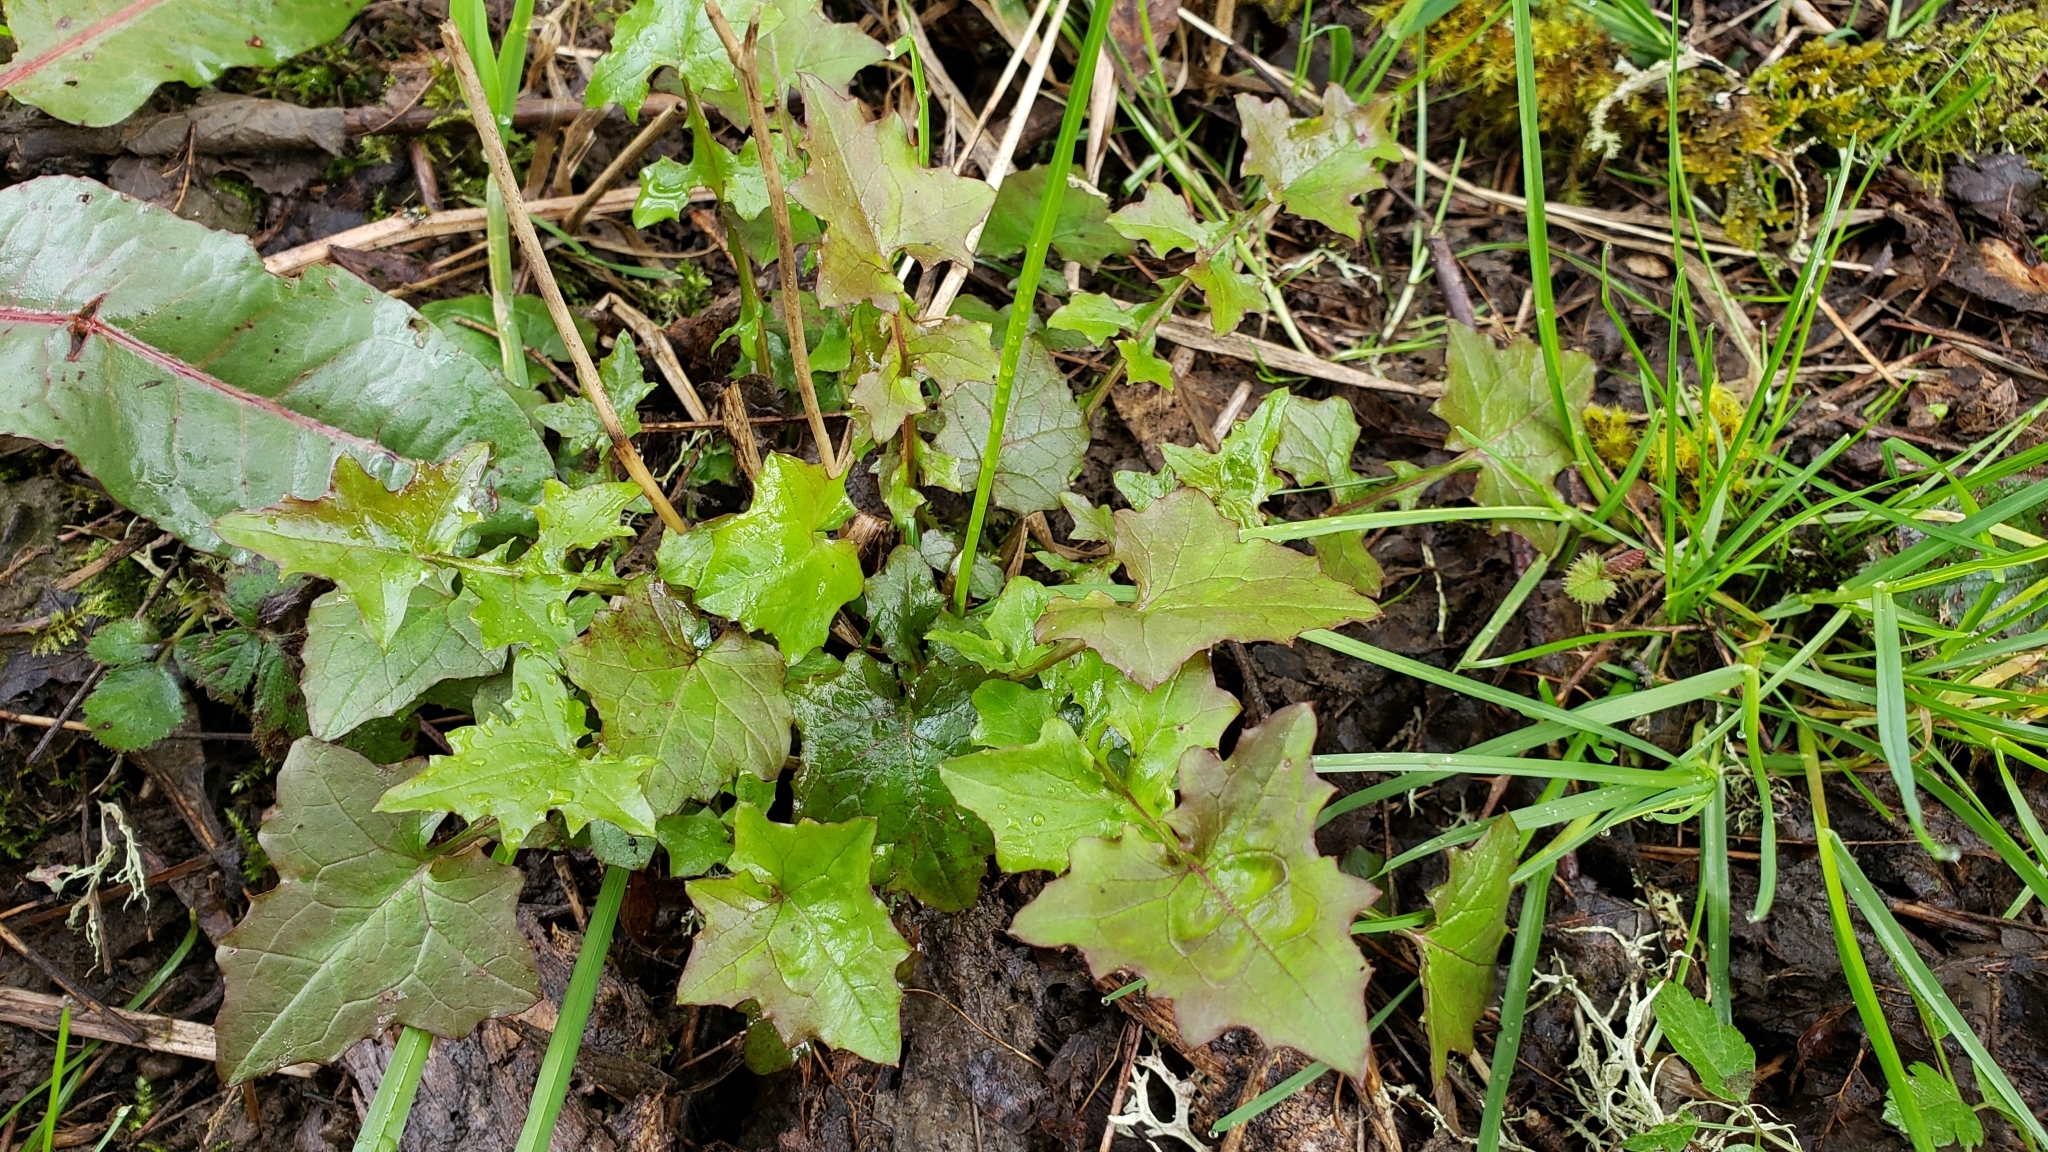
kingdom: Plantae
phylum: Tracheophyta
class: Magnoliopsida
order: Asterales
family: Asteraceae
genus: Mycelis
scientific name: Mycelis muralis
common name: Wall lettuce
